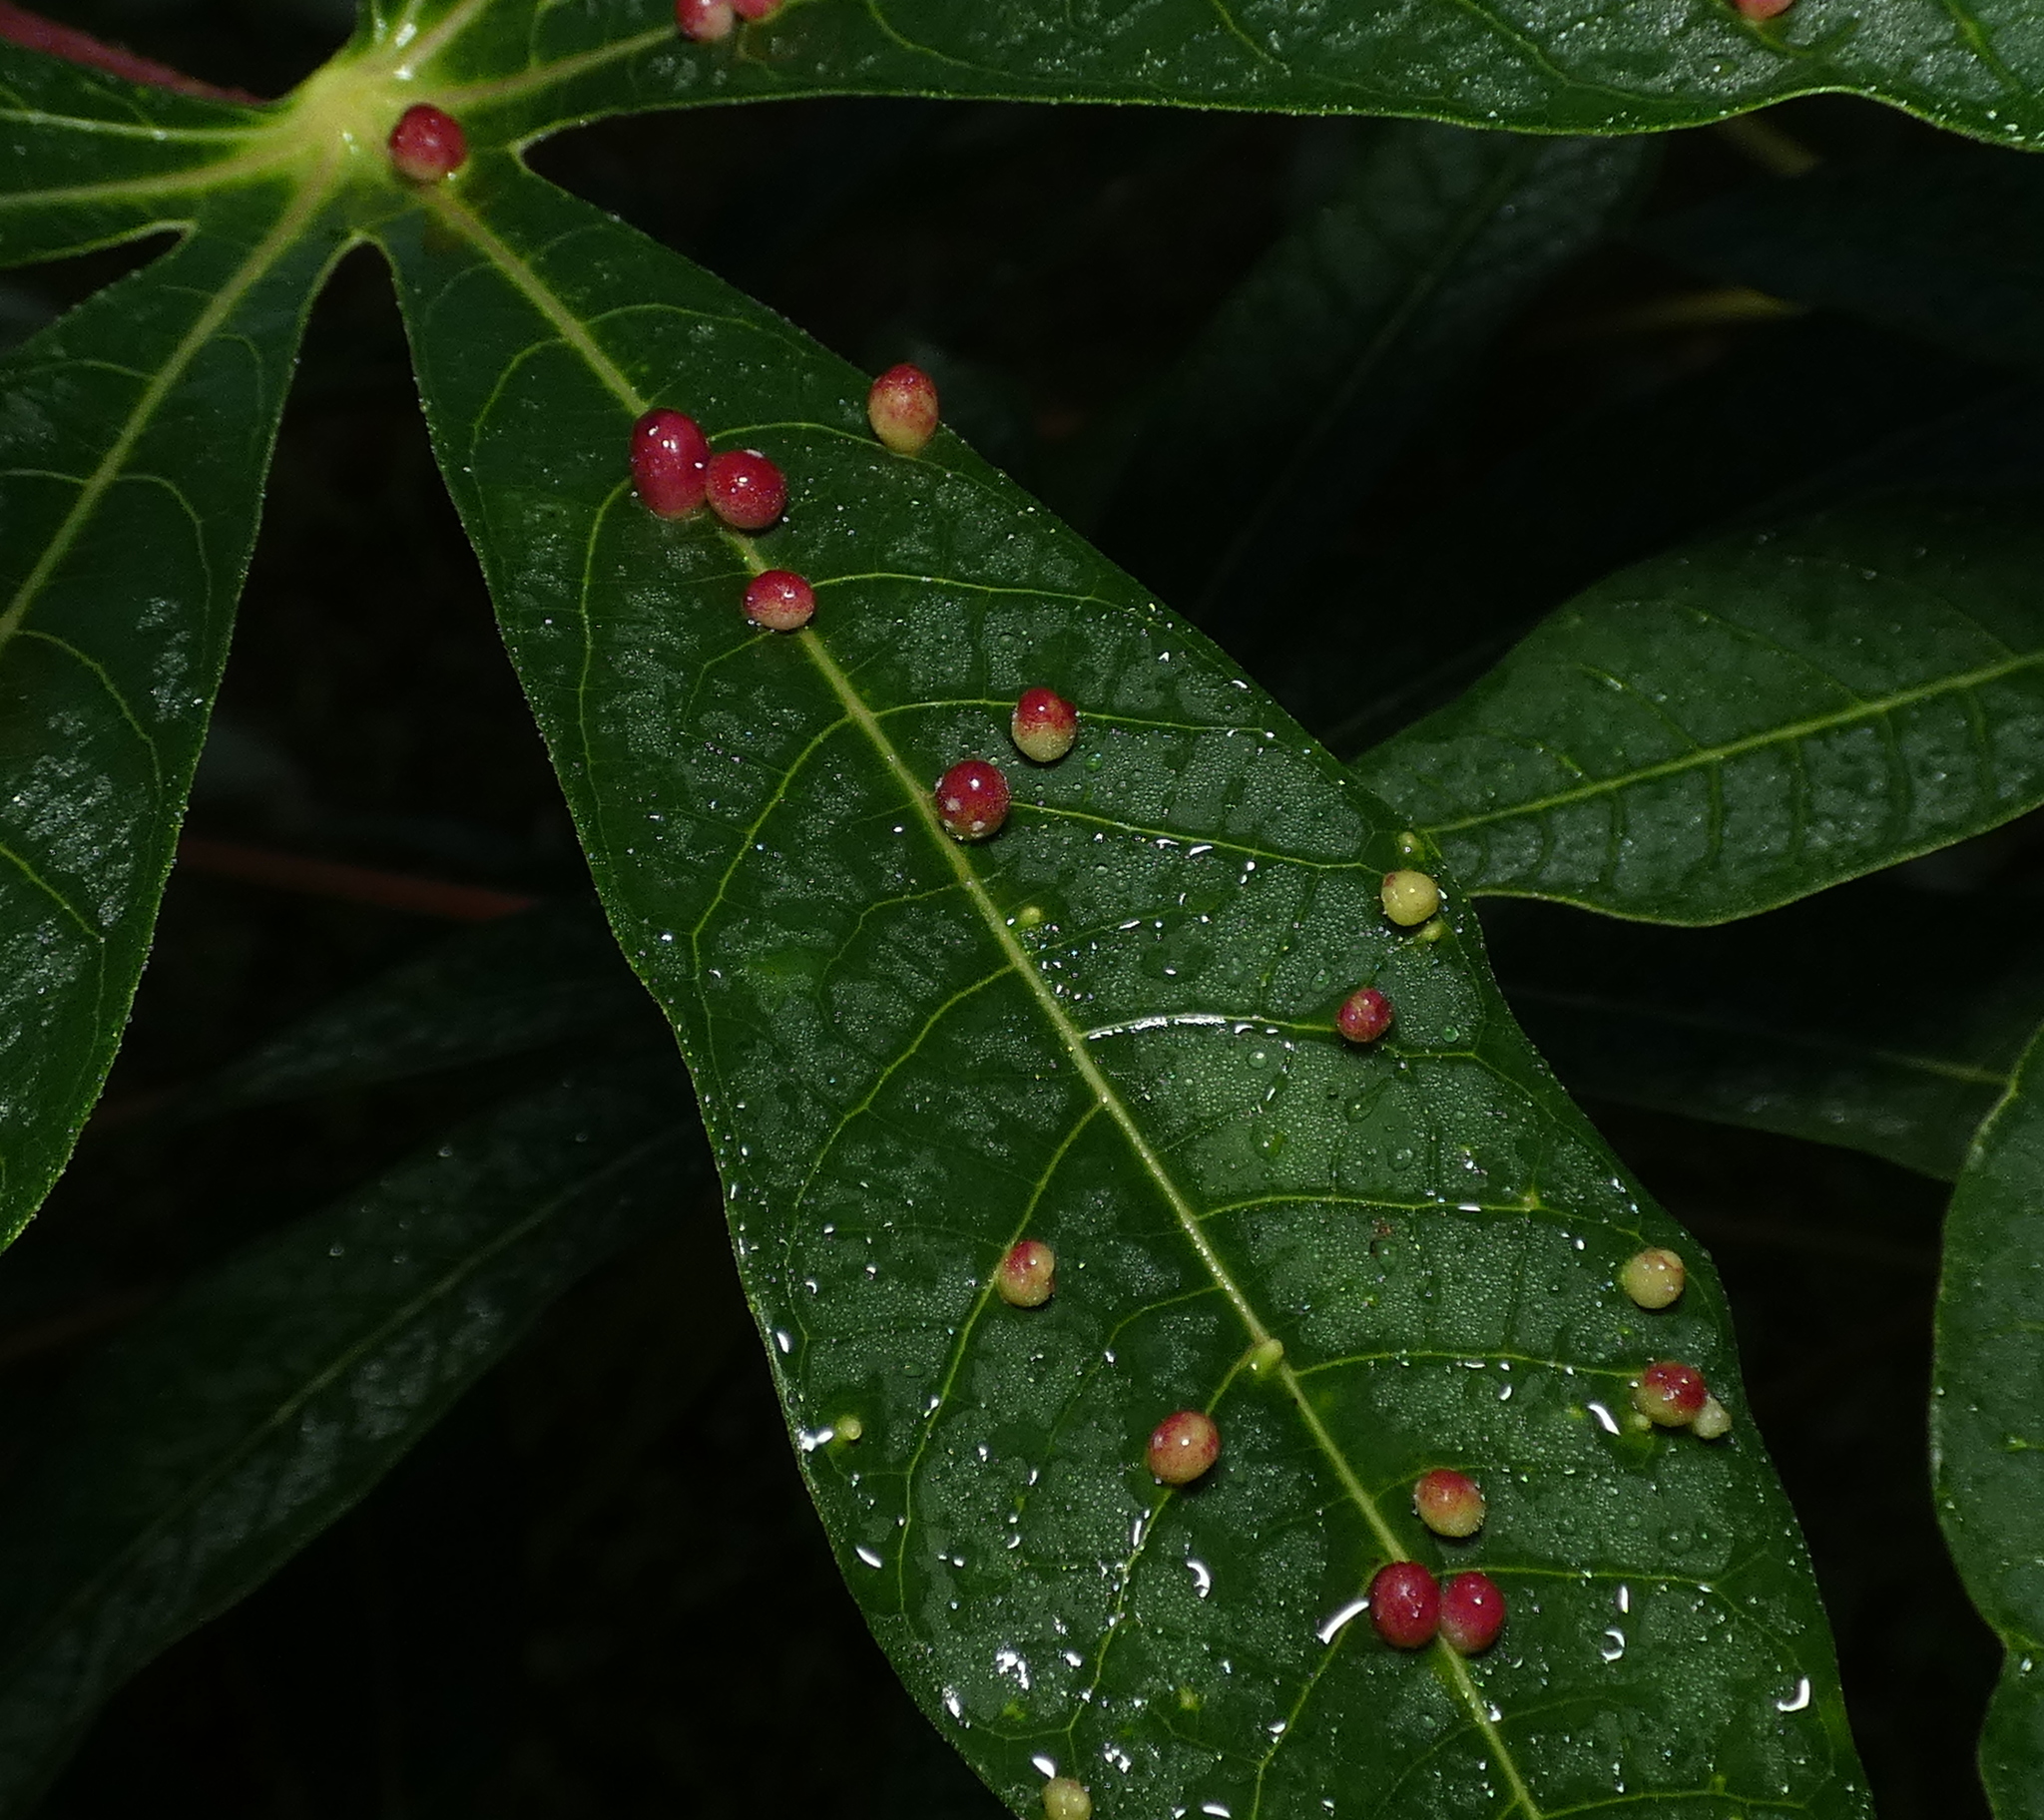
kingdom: Animalia
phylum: Arthropoda
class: Insecta
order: Diptera
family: Cecidomyiidae
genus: Iatrophobia
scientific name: Iatrophobia brasiliensis
